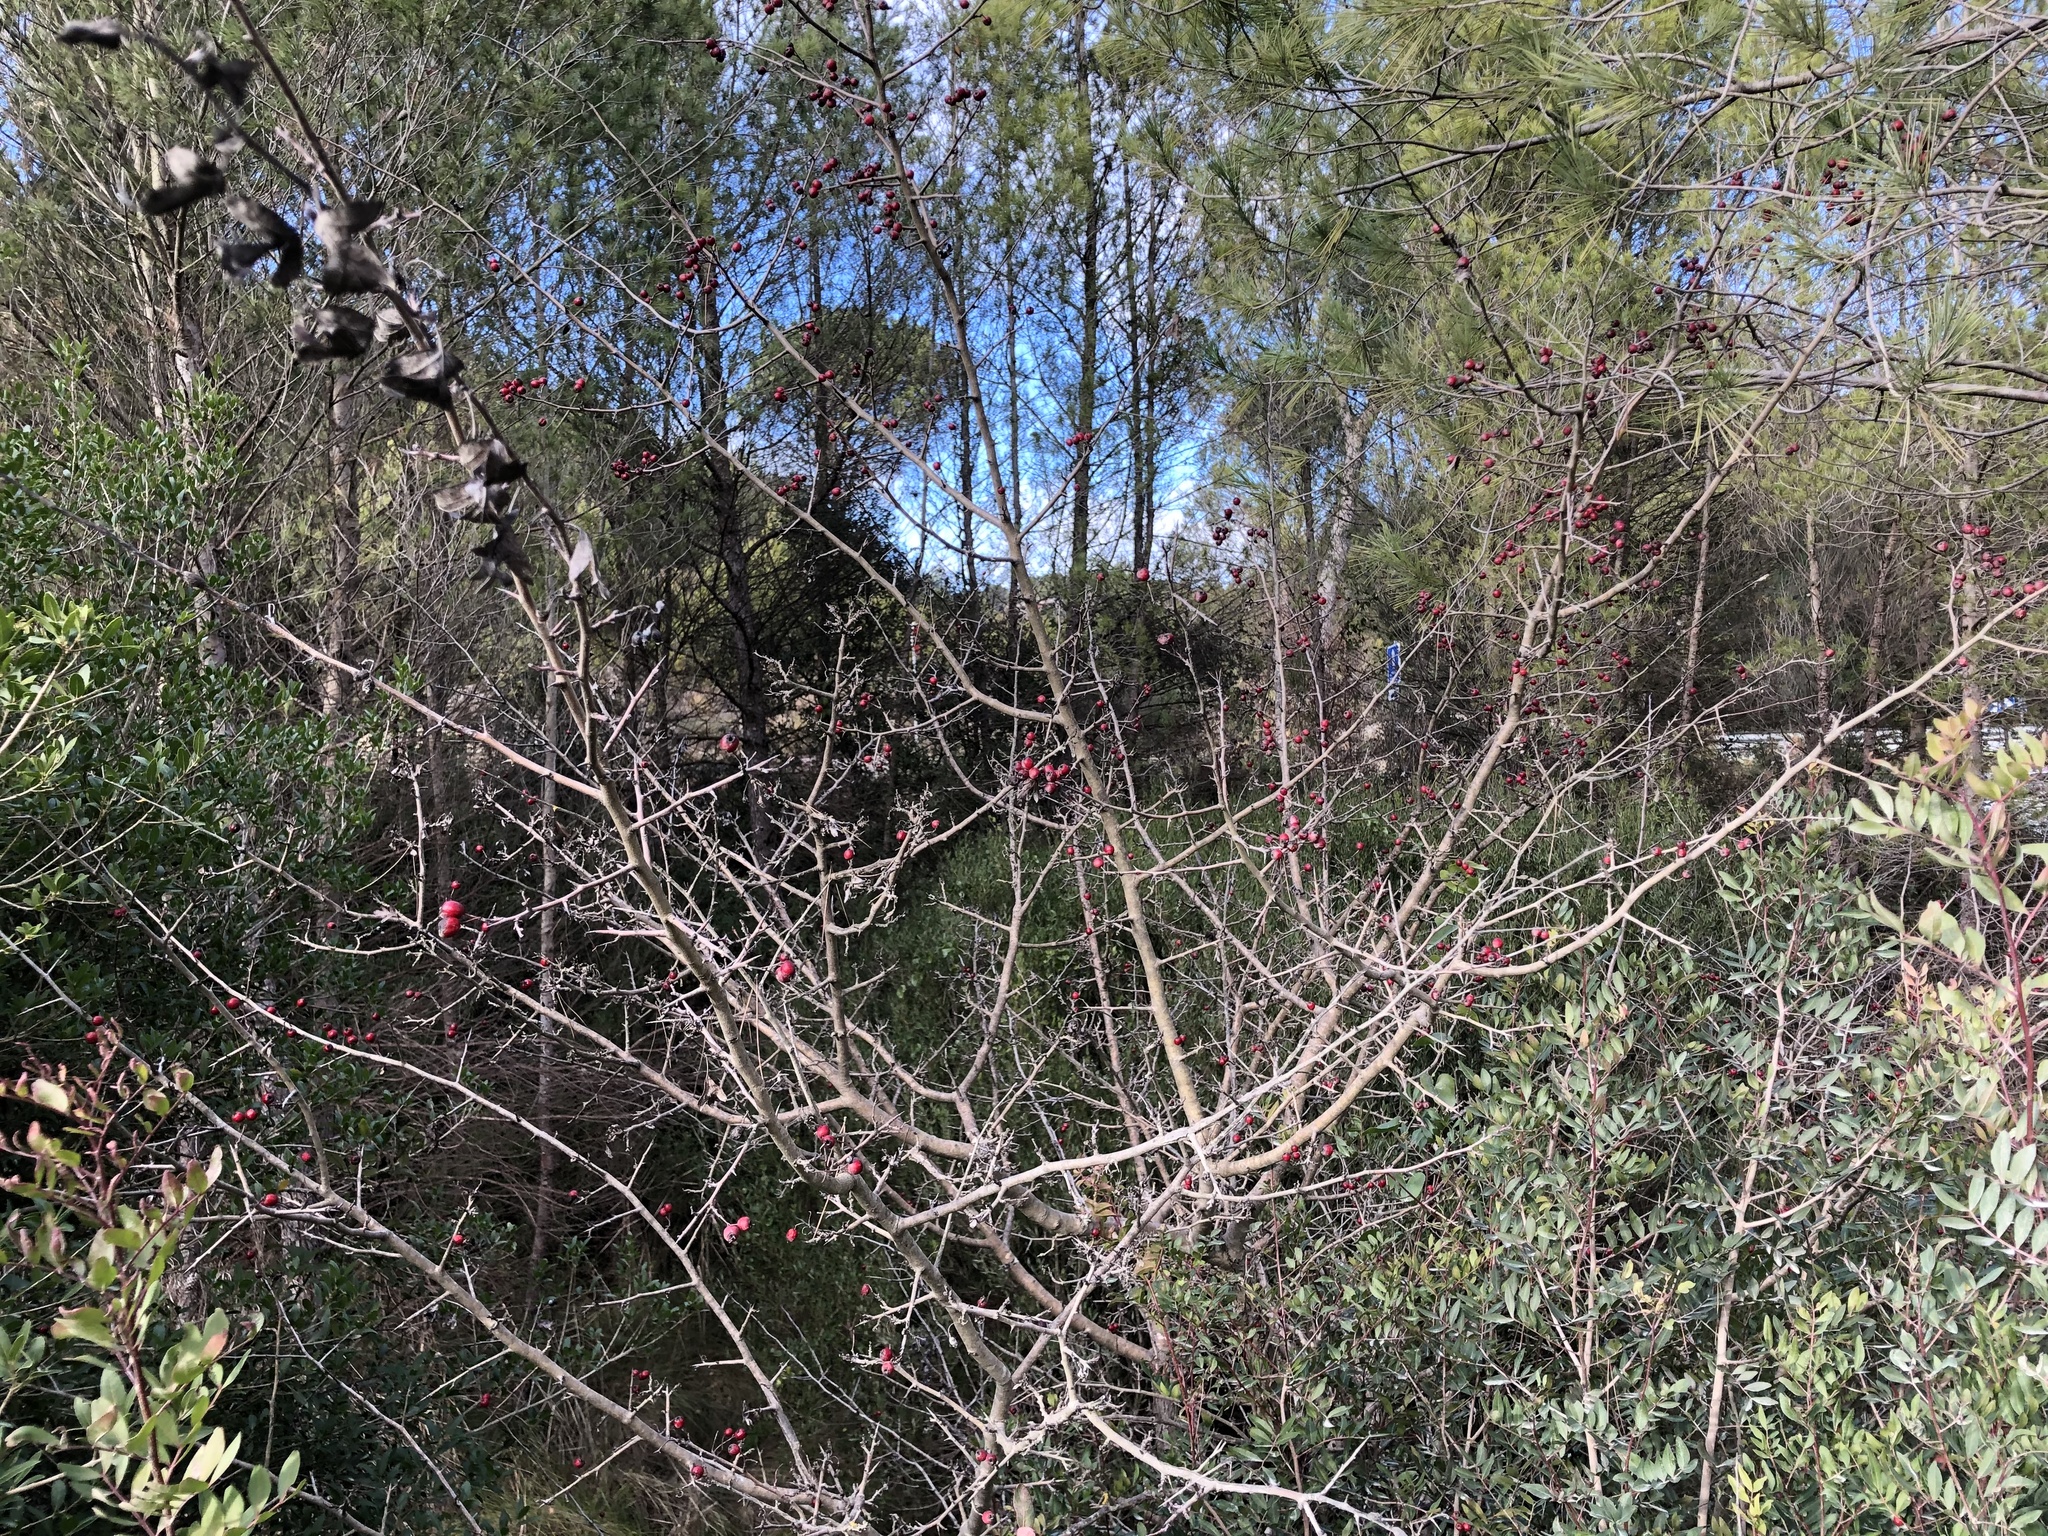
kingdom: Plantae
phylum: Tracheophyta
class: Magnoliopsida
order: Rosales
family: Rosaceae
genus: Crataegus
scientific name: Crataegus monogyna
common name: Hawthorn
